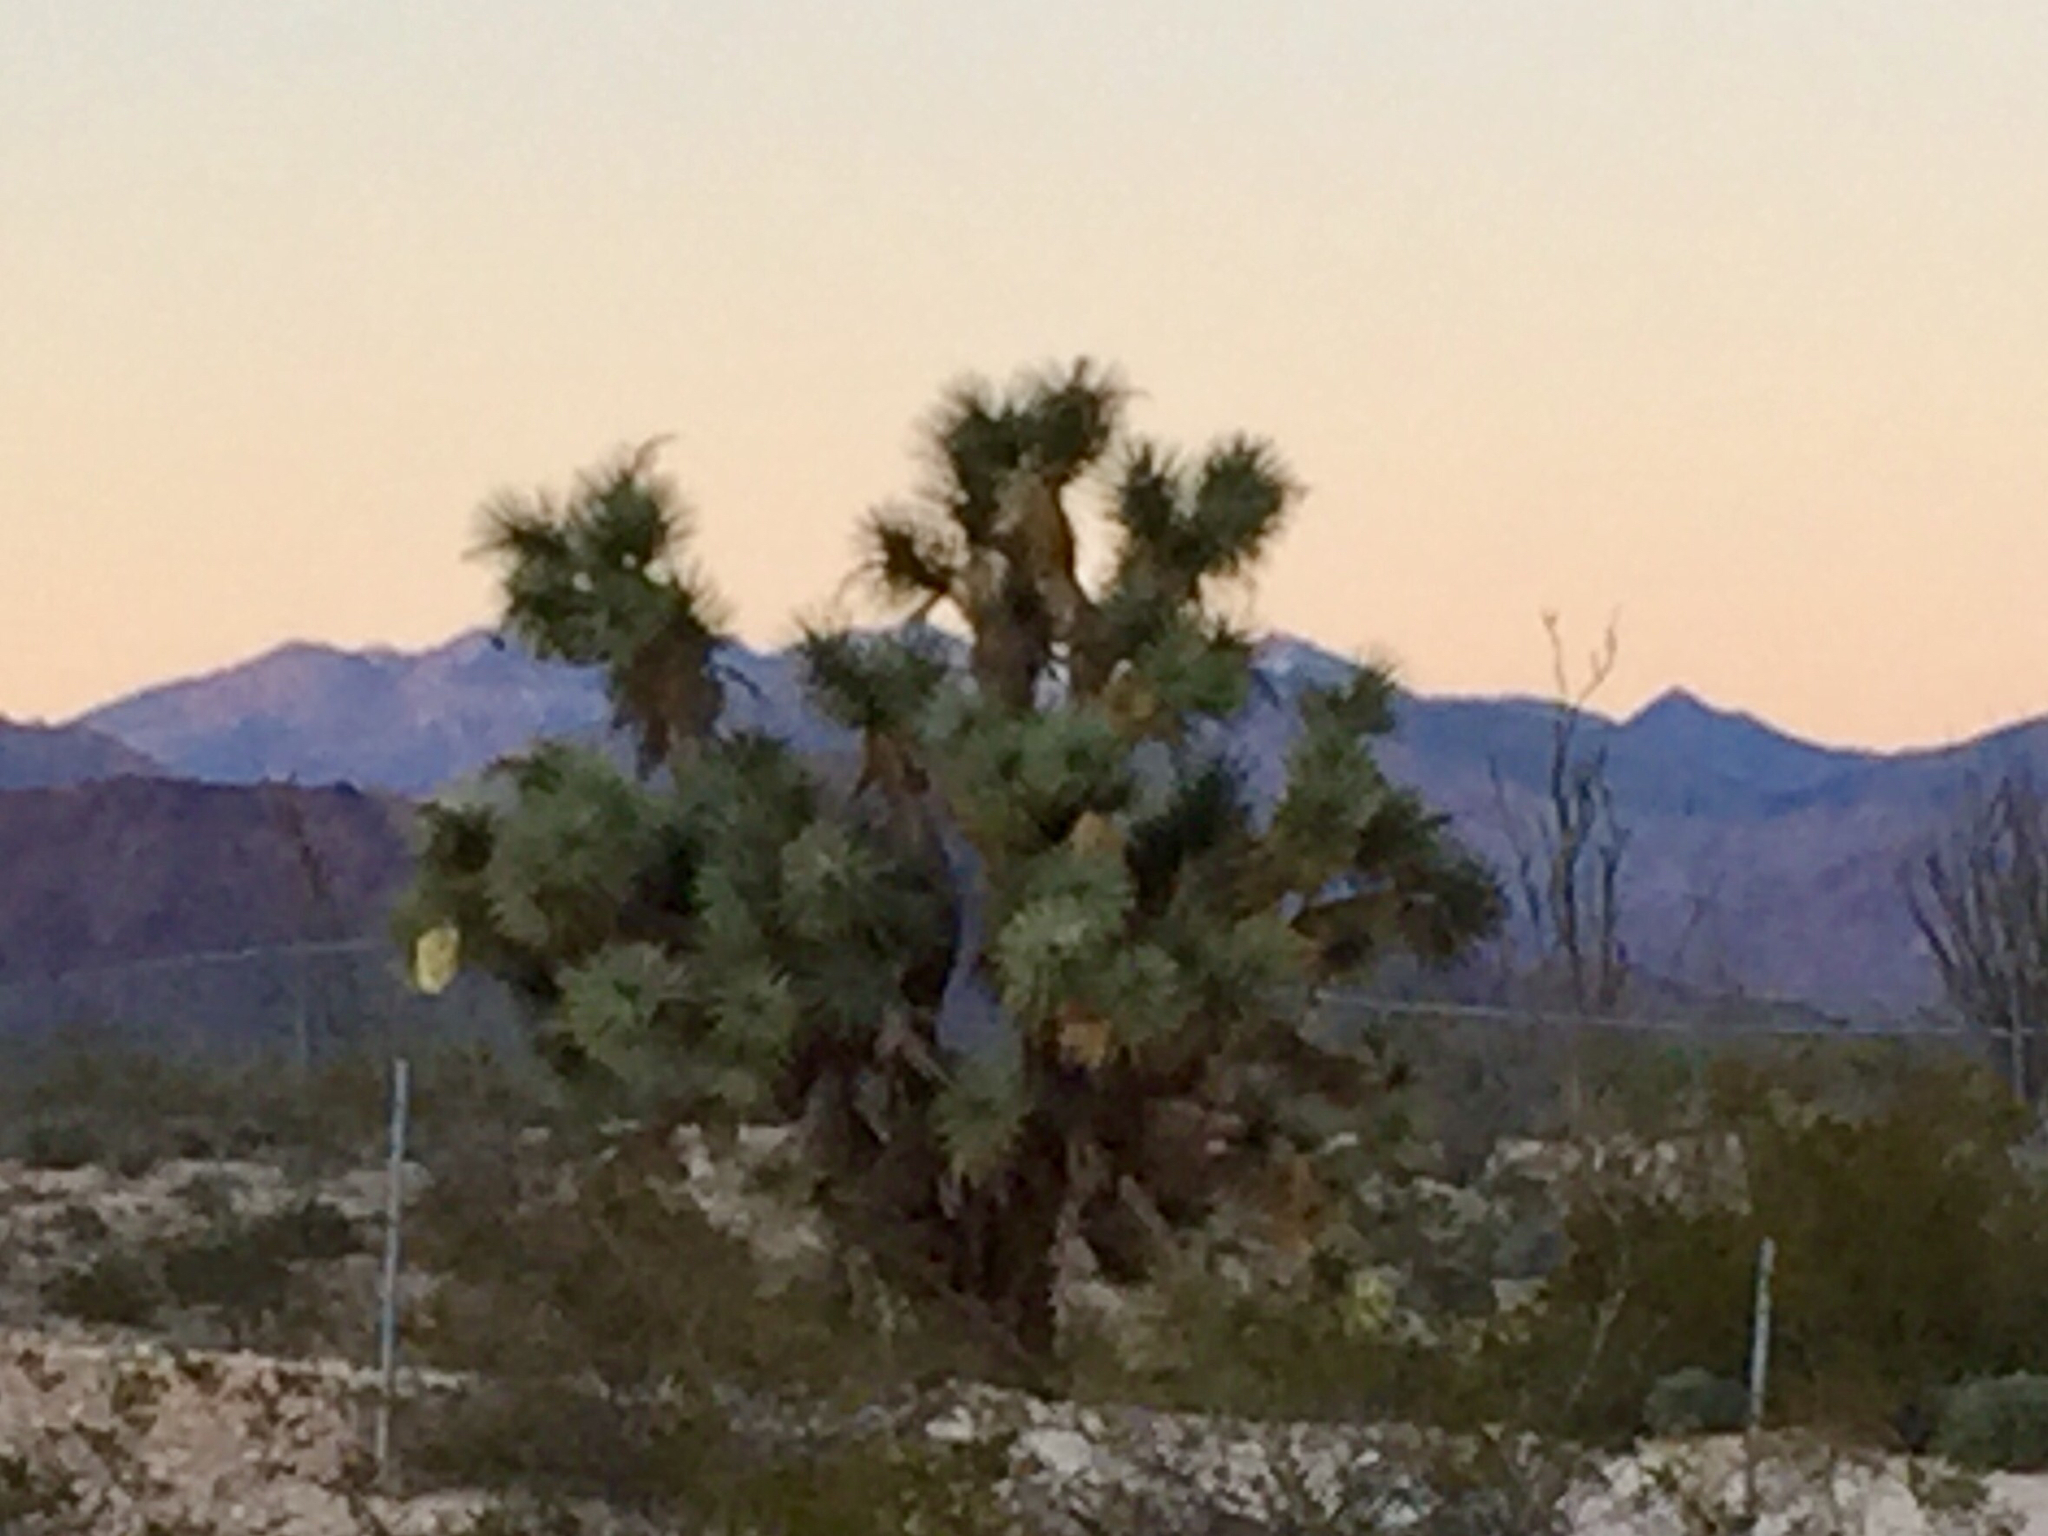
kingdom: Plantae
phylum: Tracheophyta
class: Liliopsida
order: Asparagales
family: Asparagaceae
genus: Yucca
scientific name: Yucca brevifolia
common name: Joshua tree
